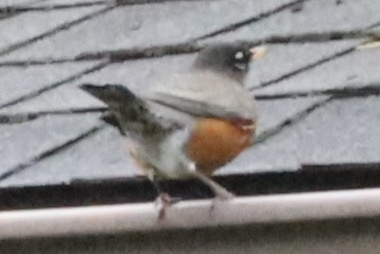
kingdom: Animalia
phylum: Chordata
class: Aves
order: Passeriformes
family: Turdidae
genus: Turdus
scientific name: Turdus migratorius
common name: American robin
